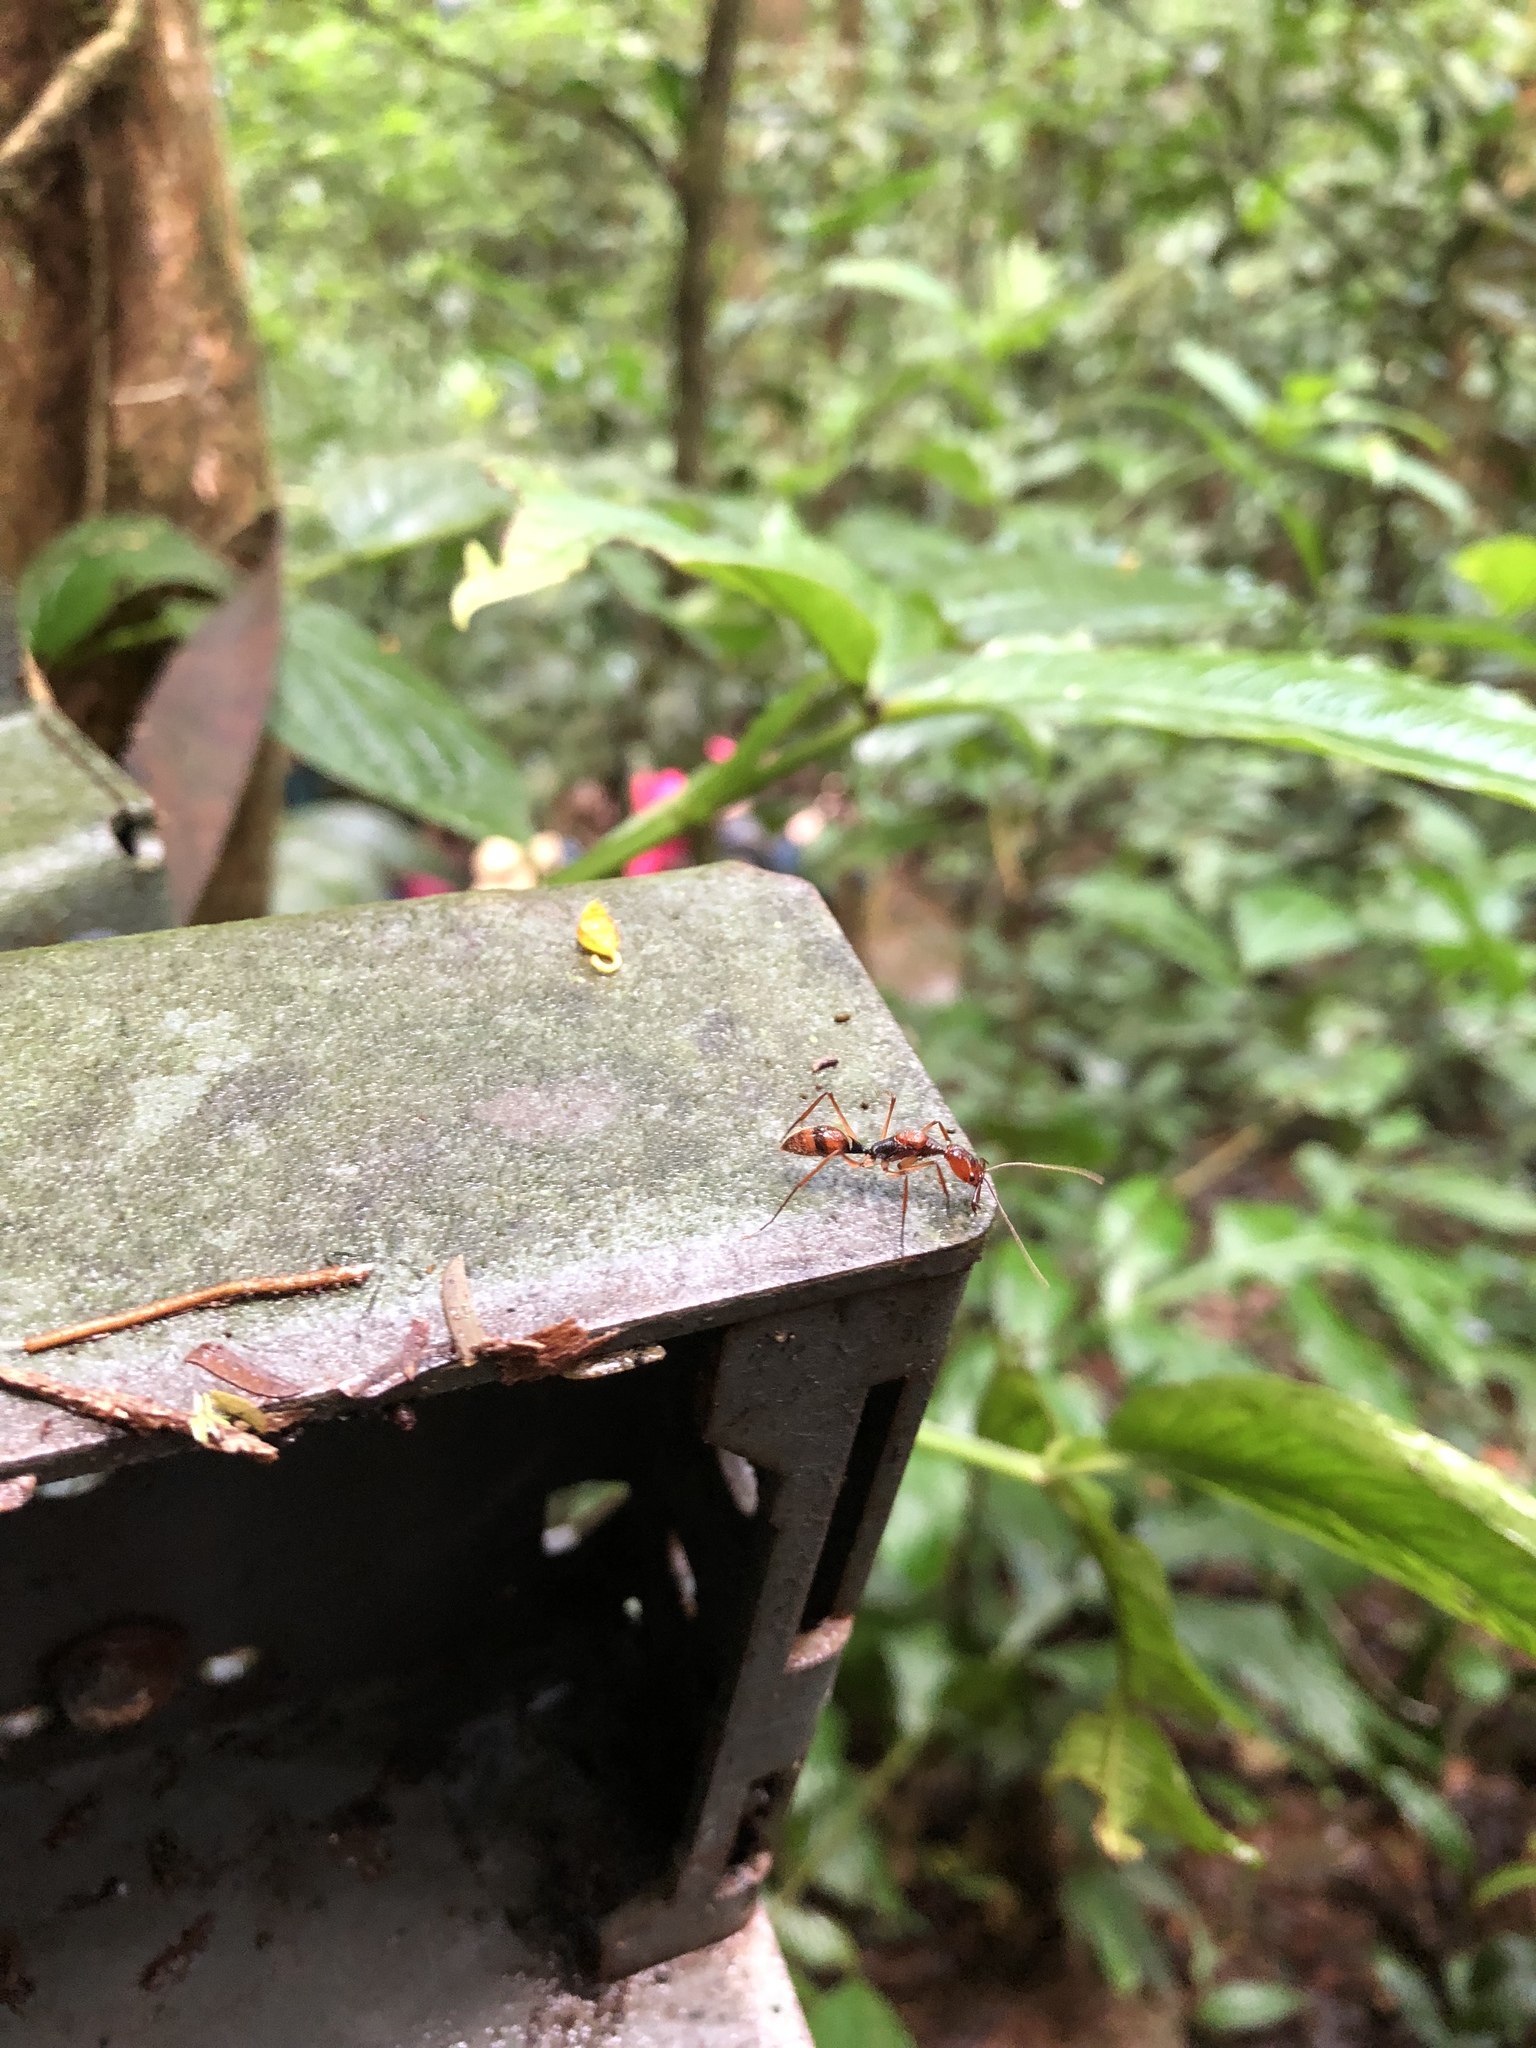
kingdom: Animalia
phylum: Arthropoda
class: Insecta
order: Hymenoptera
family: Formicidae
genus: Odontomachus
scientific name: Odontomachus hastatus
